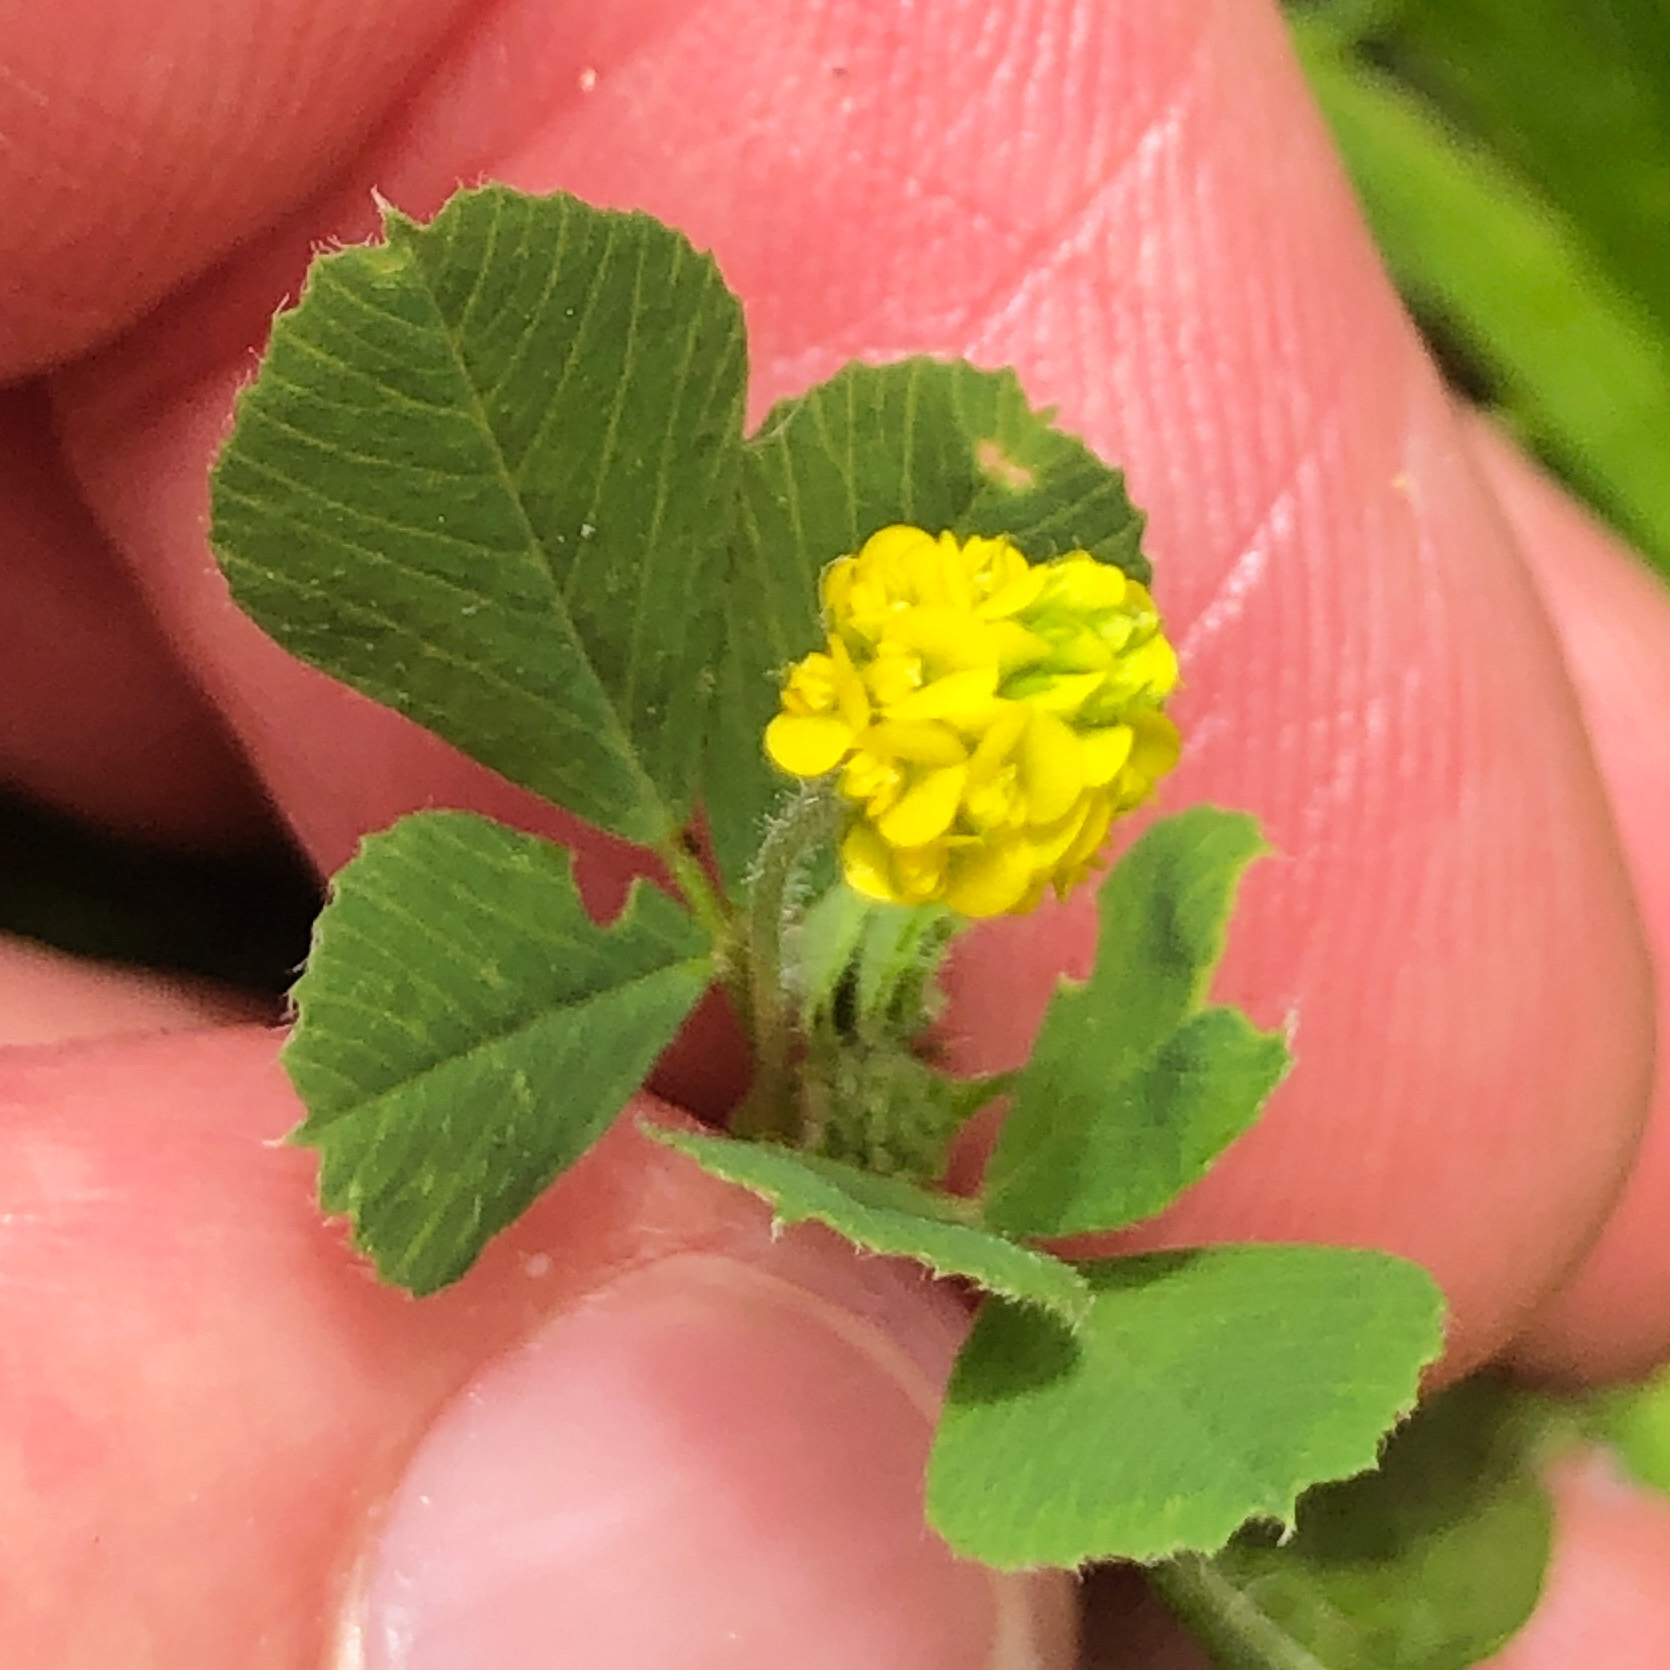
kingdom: Plantae
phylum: Tracheophyta
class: Magnoliopsida
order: Fabales
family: Fabaceae
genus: Medicago
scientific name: Medicago lupulina
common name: Black medick
